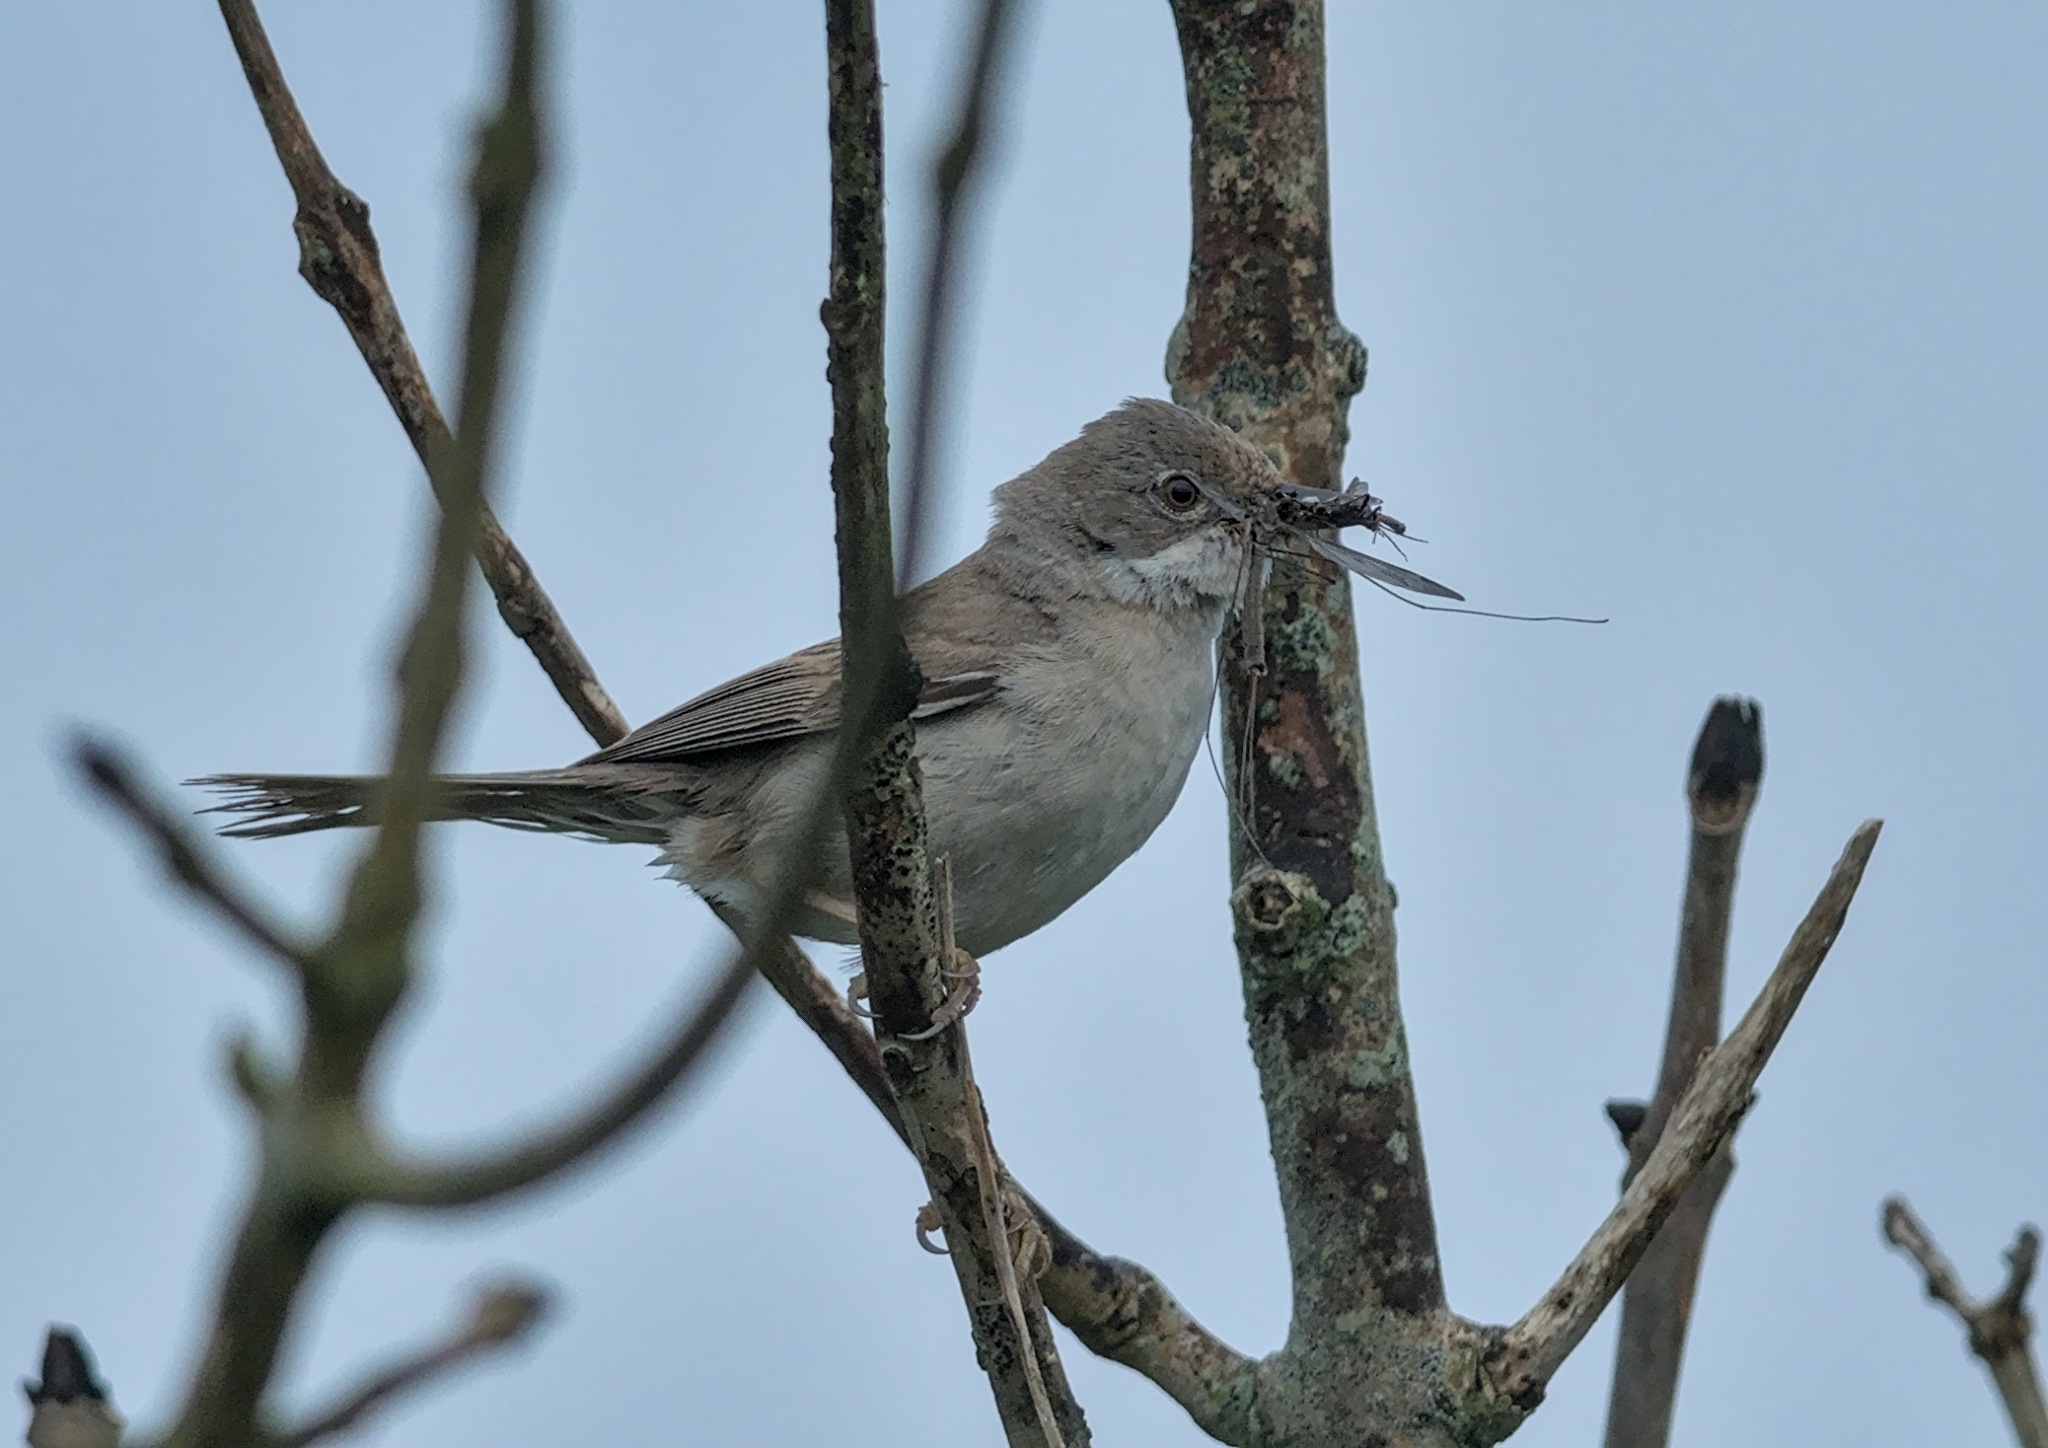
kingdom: Animalia
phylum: Chordata
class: Aves
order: Passeriformes
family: Sylviidae
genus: Sylvia
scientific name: Sylvia communis
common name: Common whitethroat
